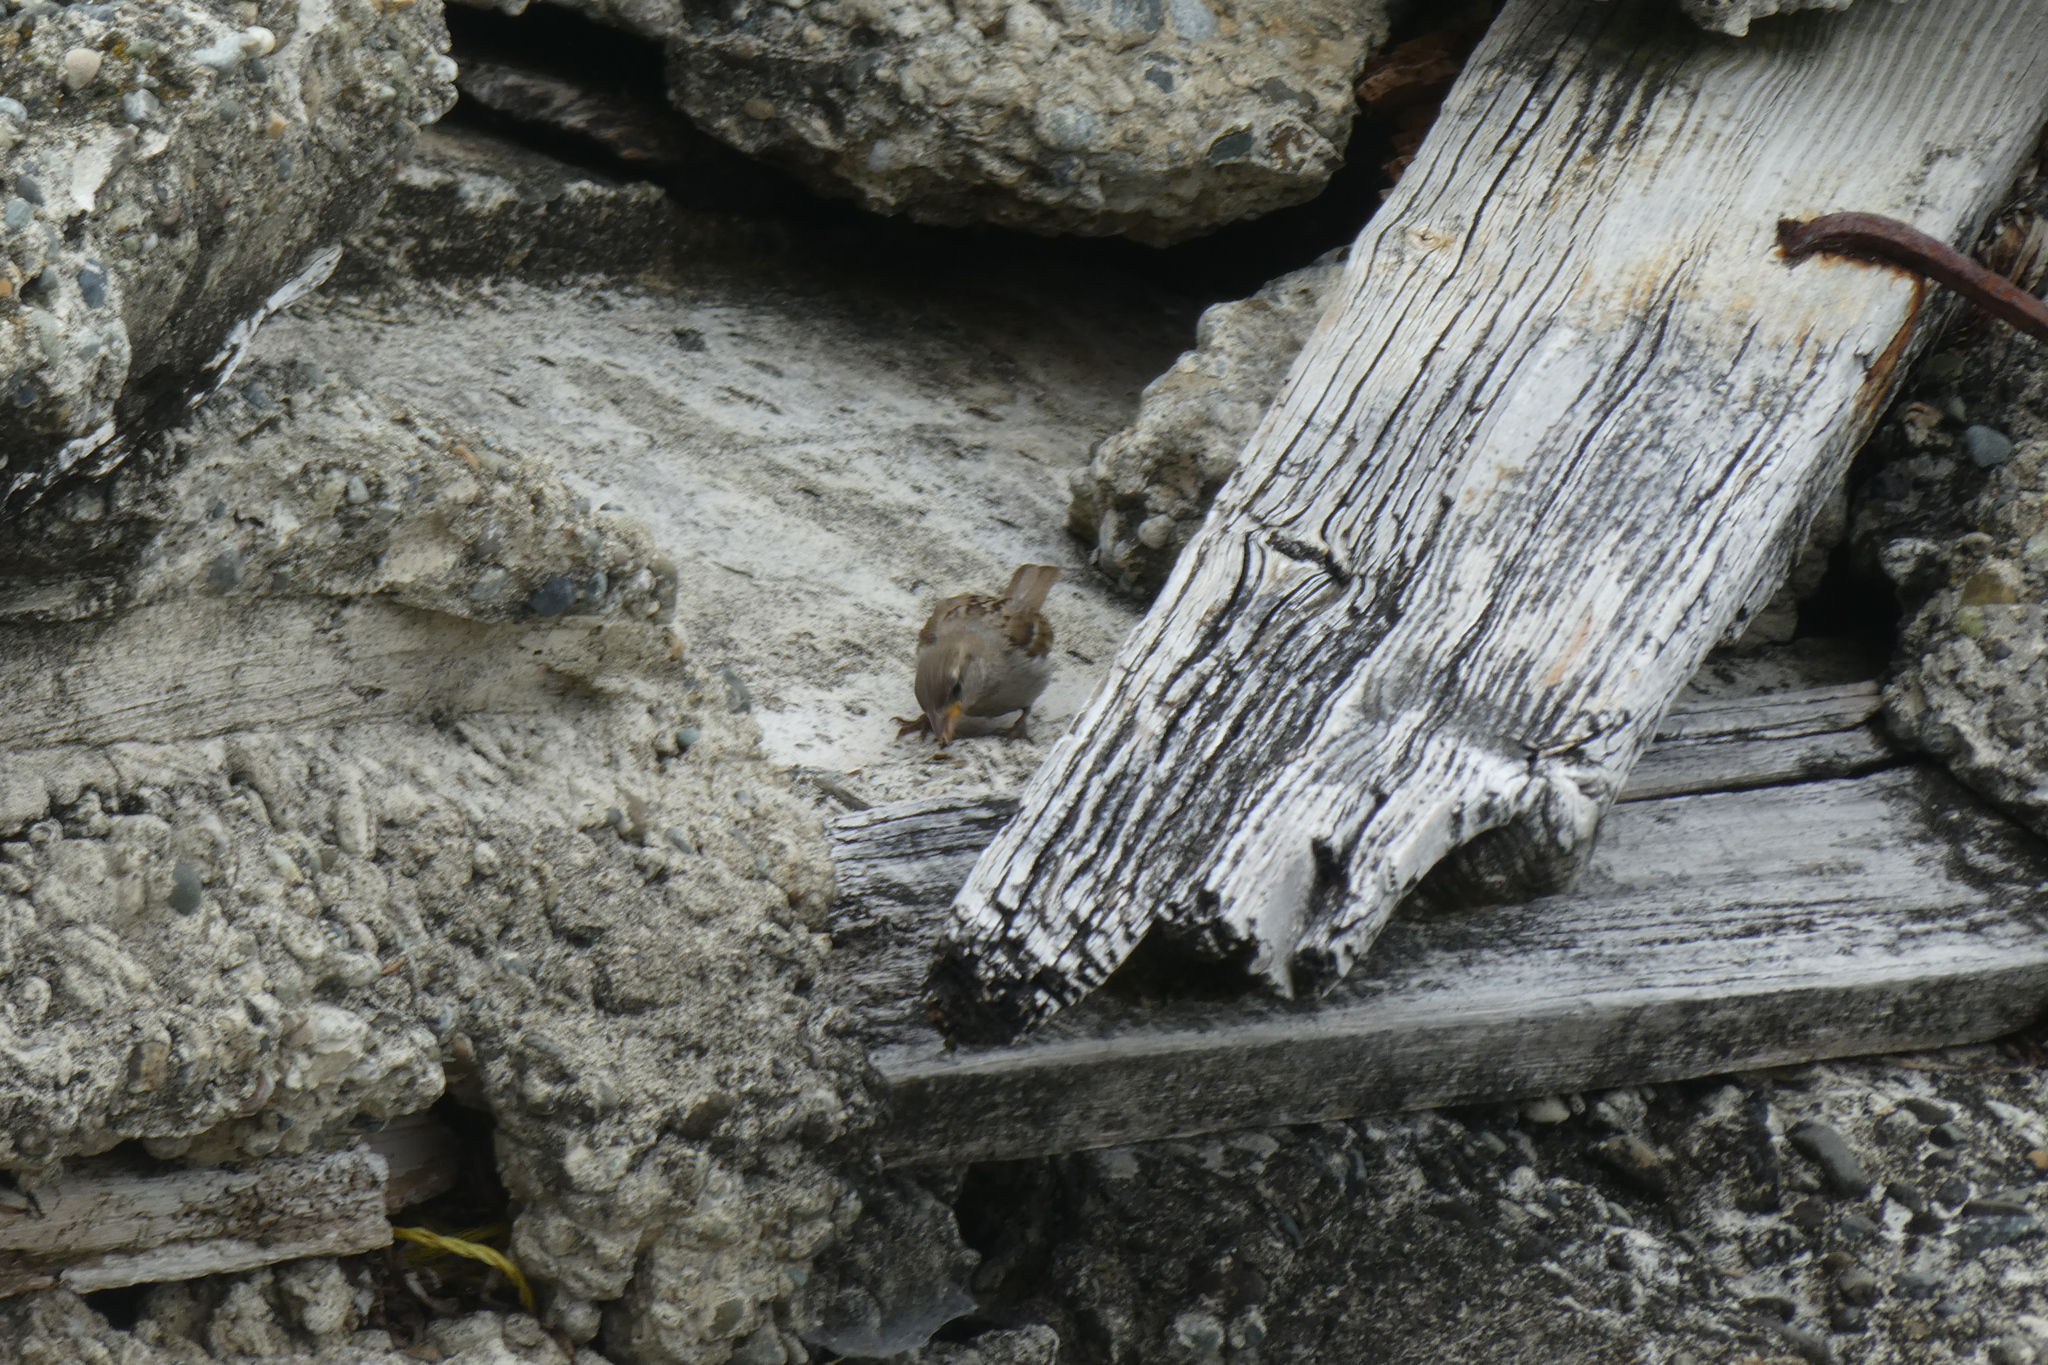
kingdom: Animalia
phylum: Chordata
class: Aves
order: Passeriformes
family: Passeridae
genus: Passer
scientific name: Passer domesticus
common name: House sparrow
